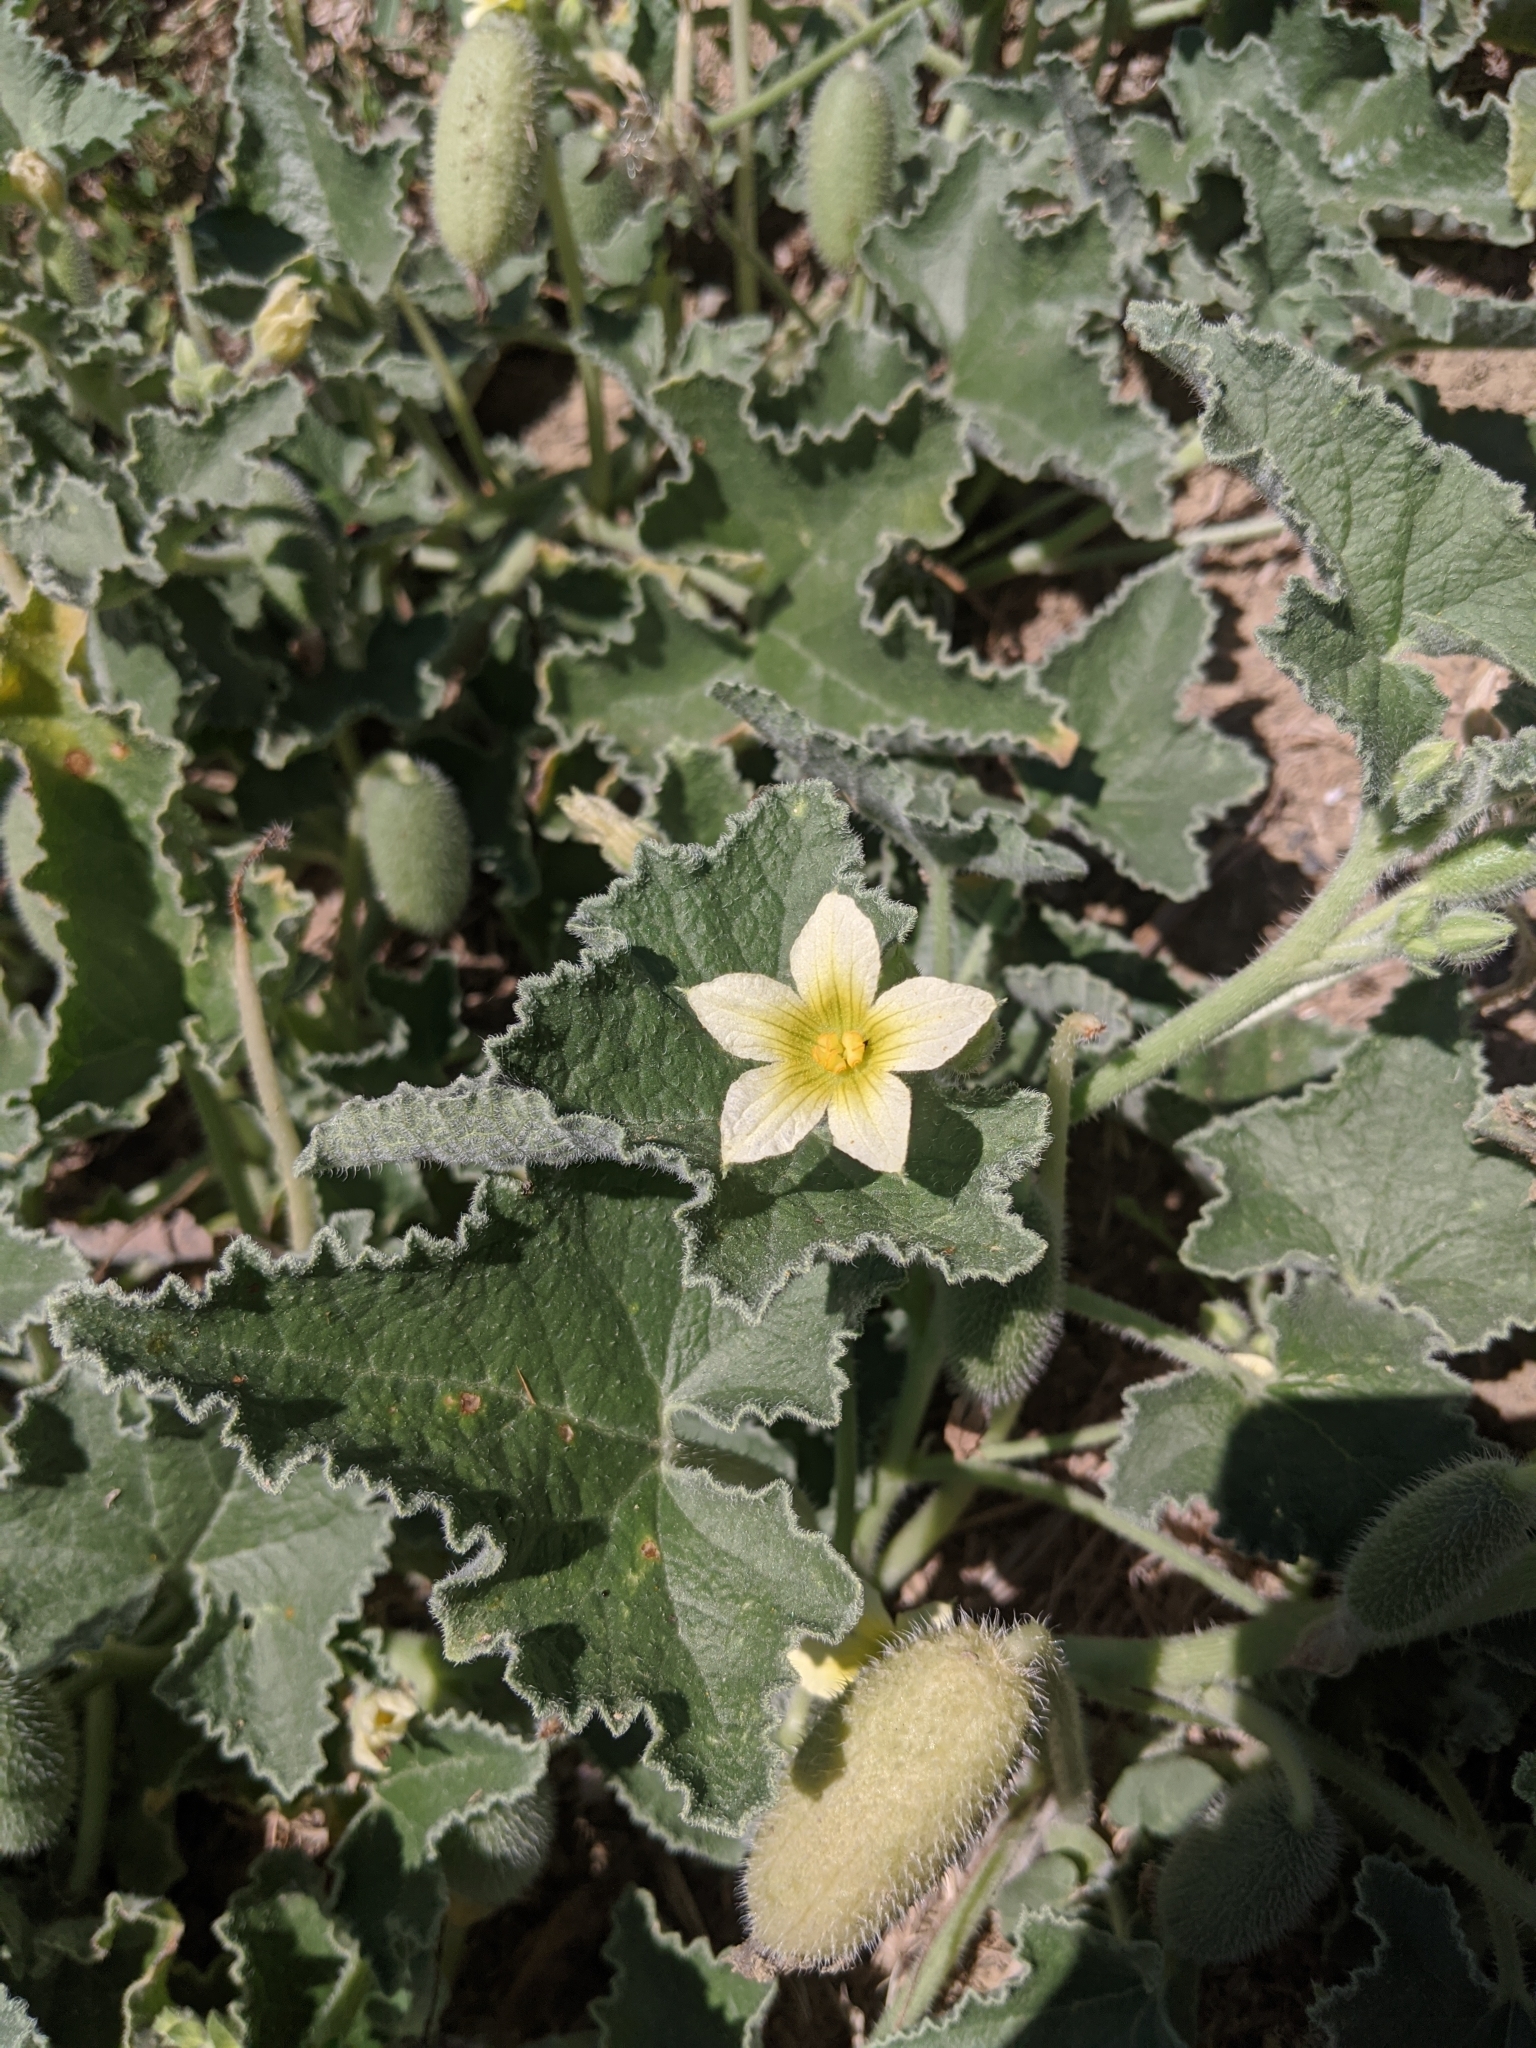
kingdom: Plantae
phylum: Tracheophyta
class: Magnoliopsida
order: Cucurbitales
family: Cucurbitaceae
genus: Ecballium
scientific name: Ecballium elaterium
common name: Squirting cucumber
